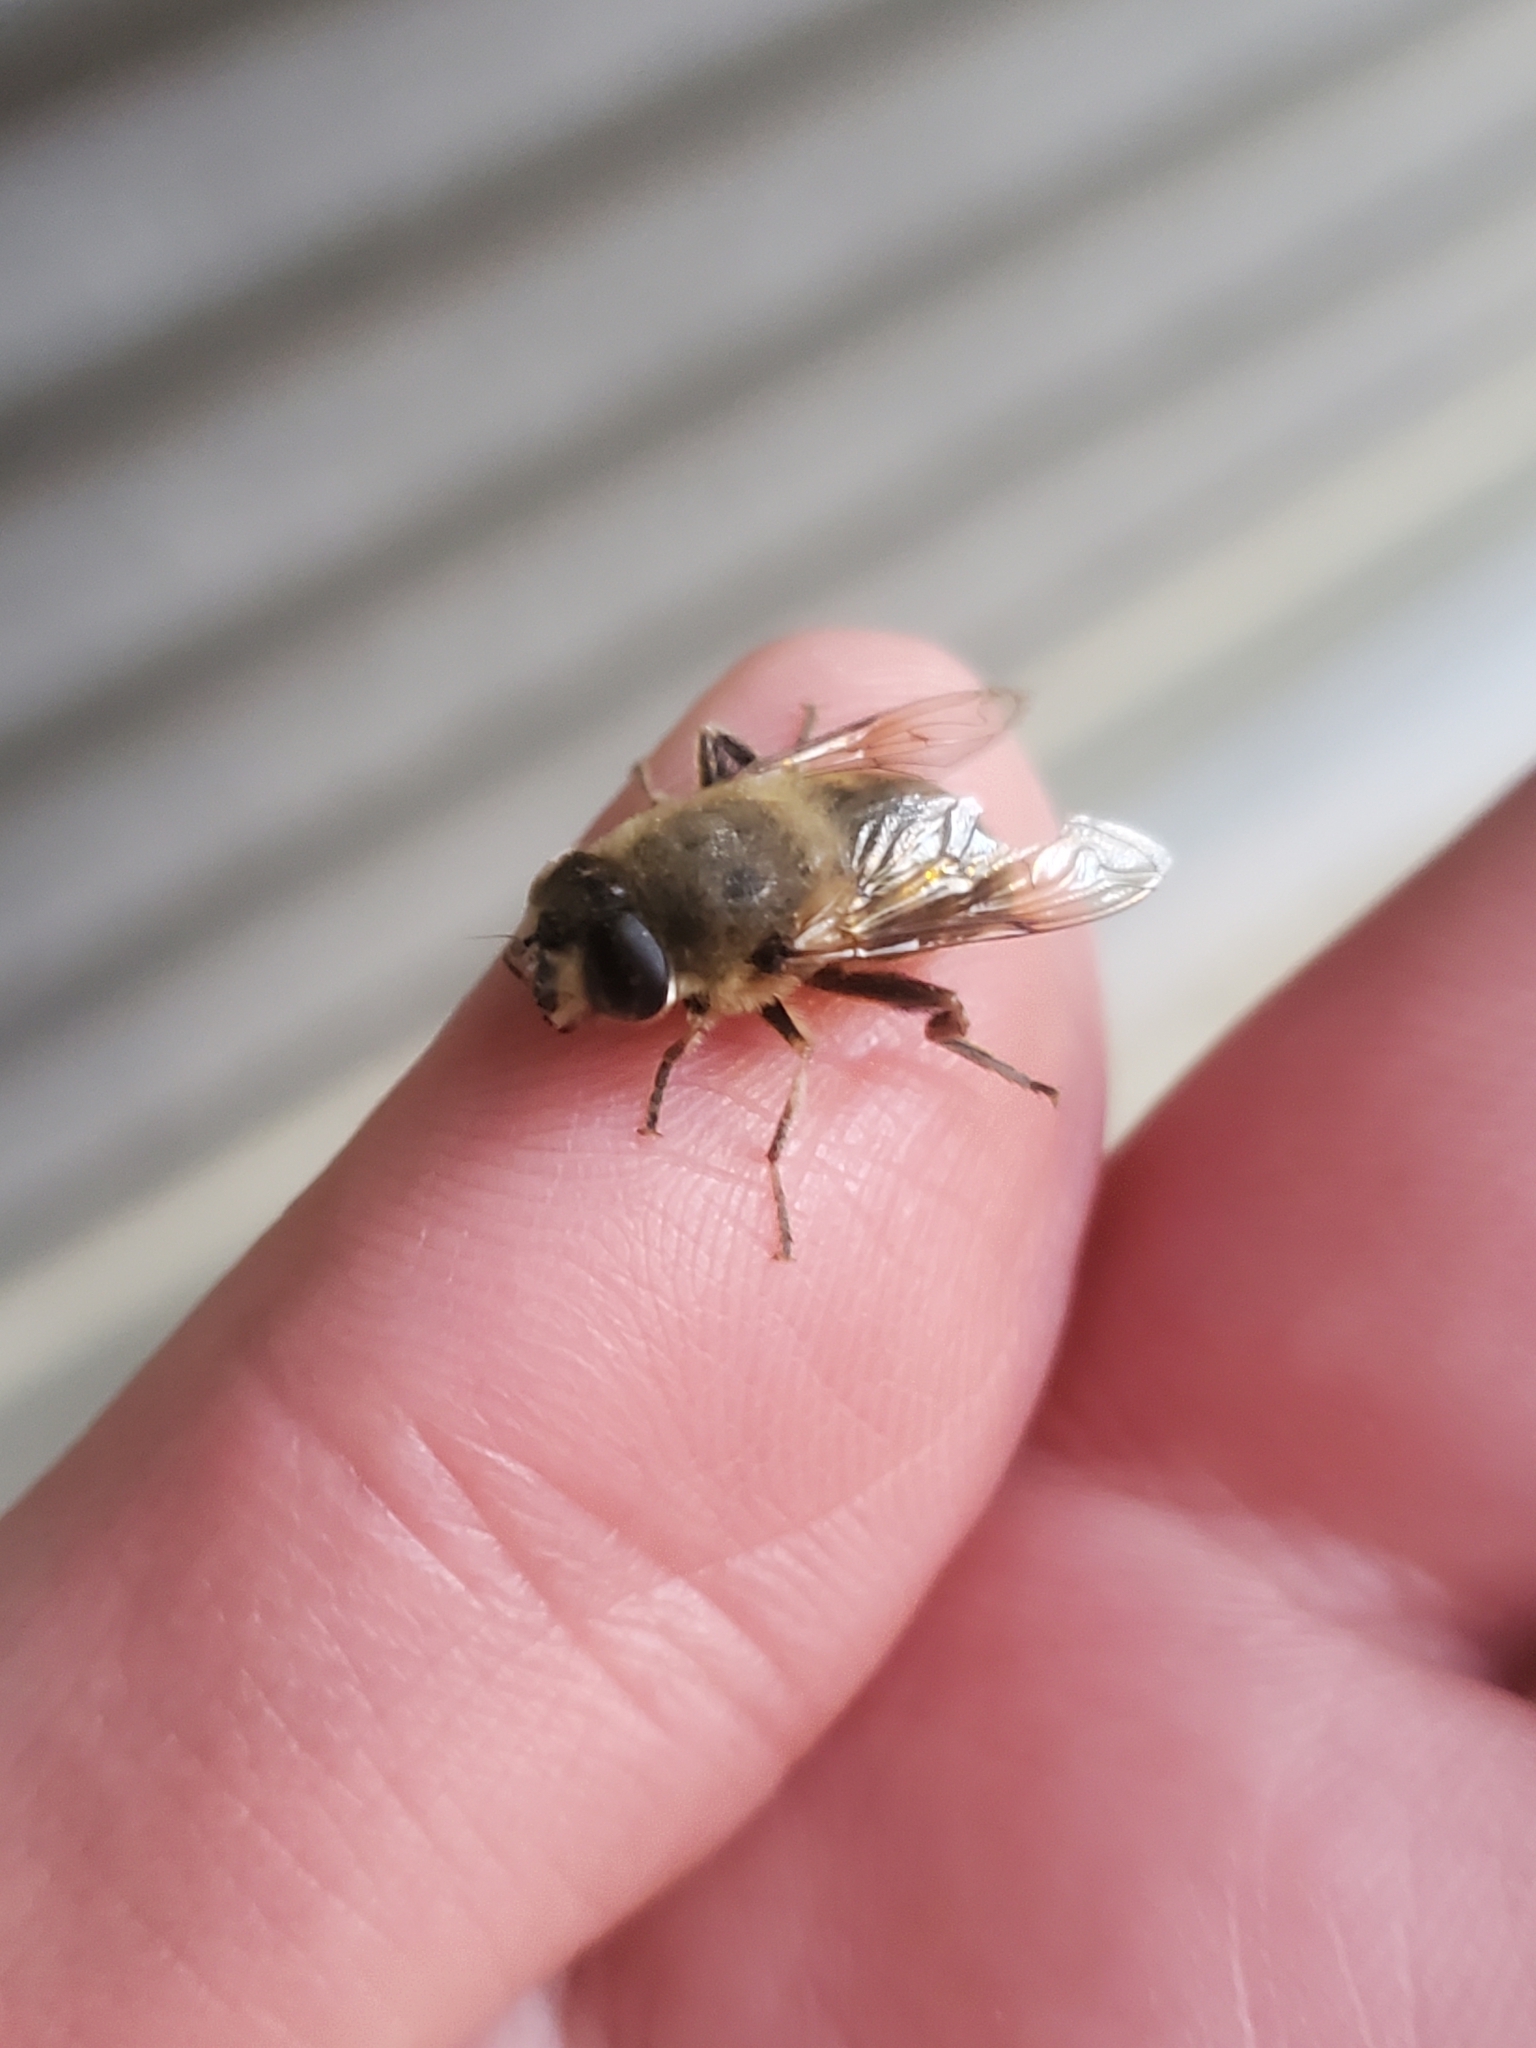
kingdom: Animalia
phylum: Arthropoda
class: Insecta
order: Diptera
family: Syrphidae
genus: Eristalis
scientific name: Eristalis tenax
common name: Drone fly
